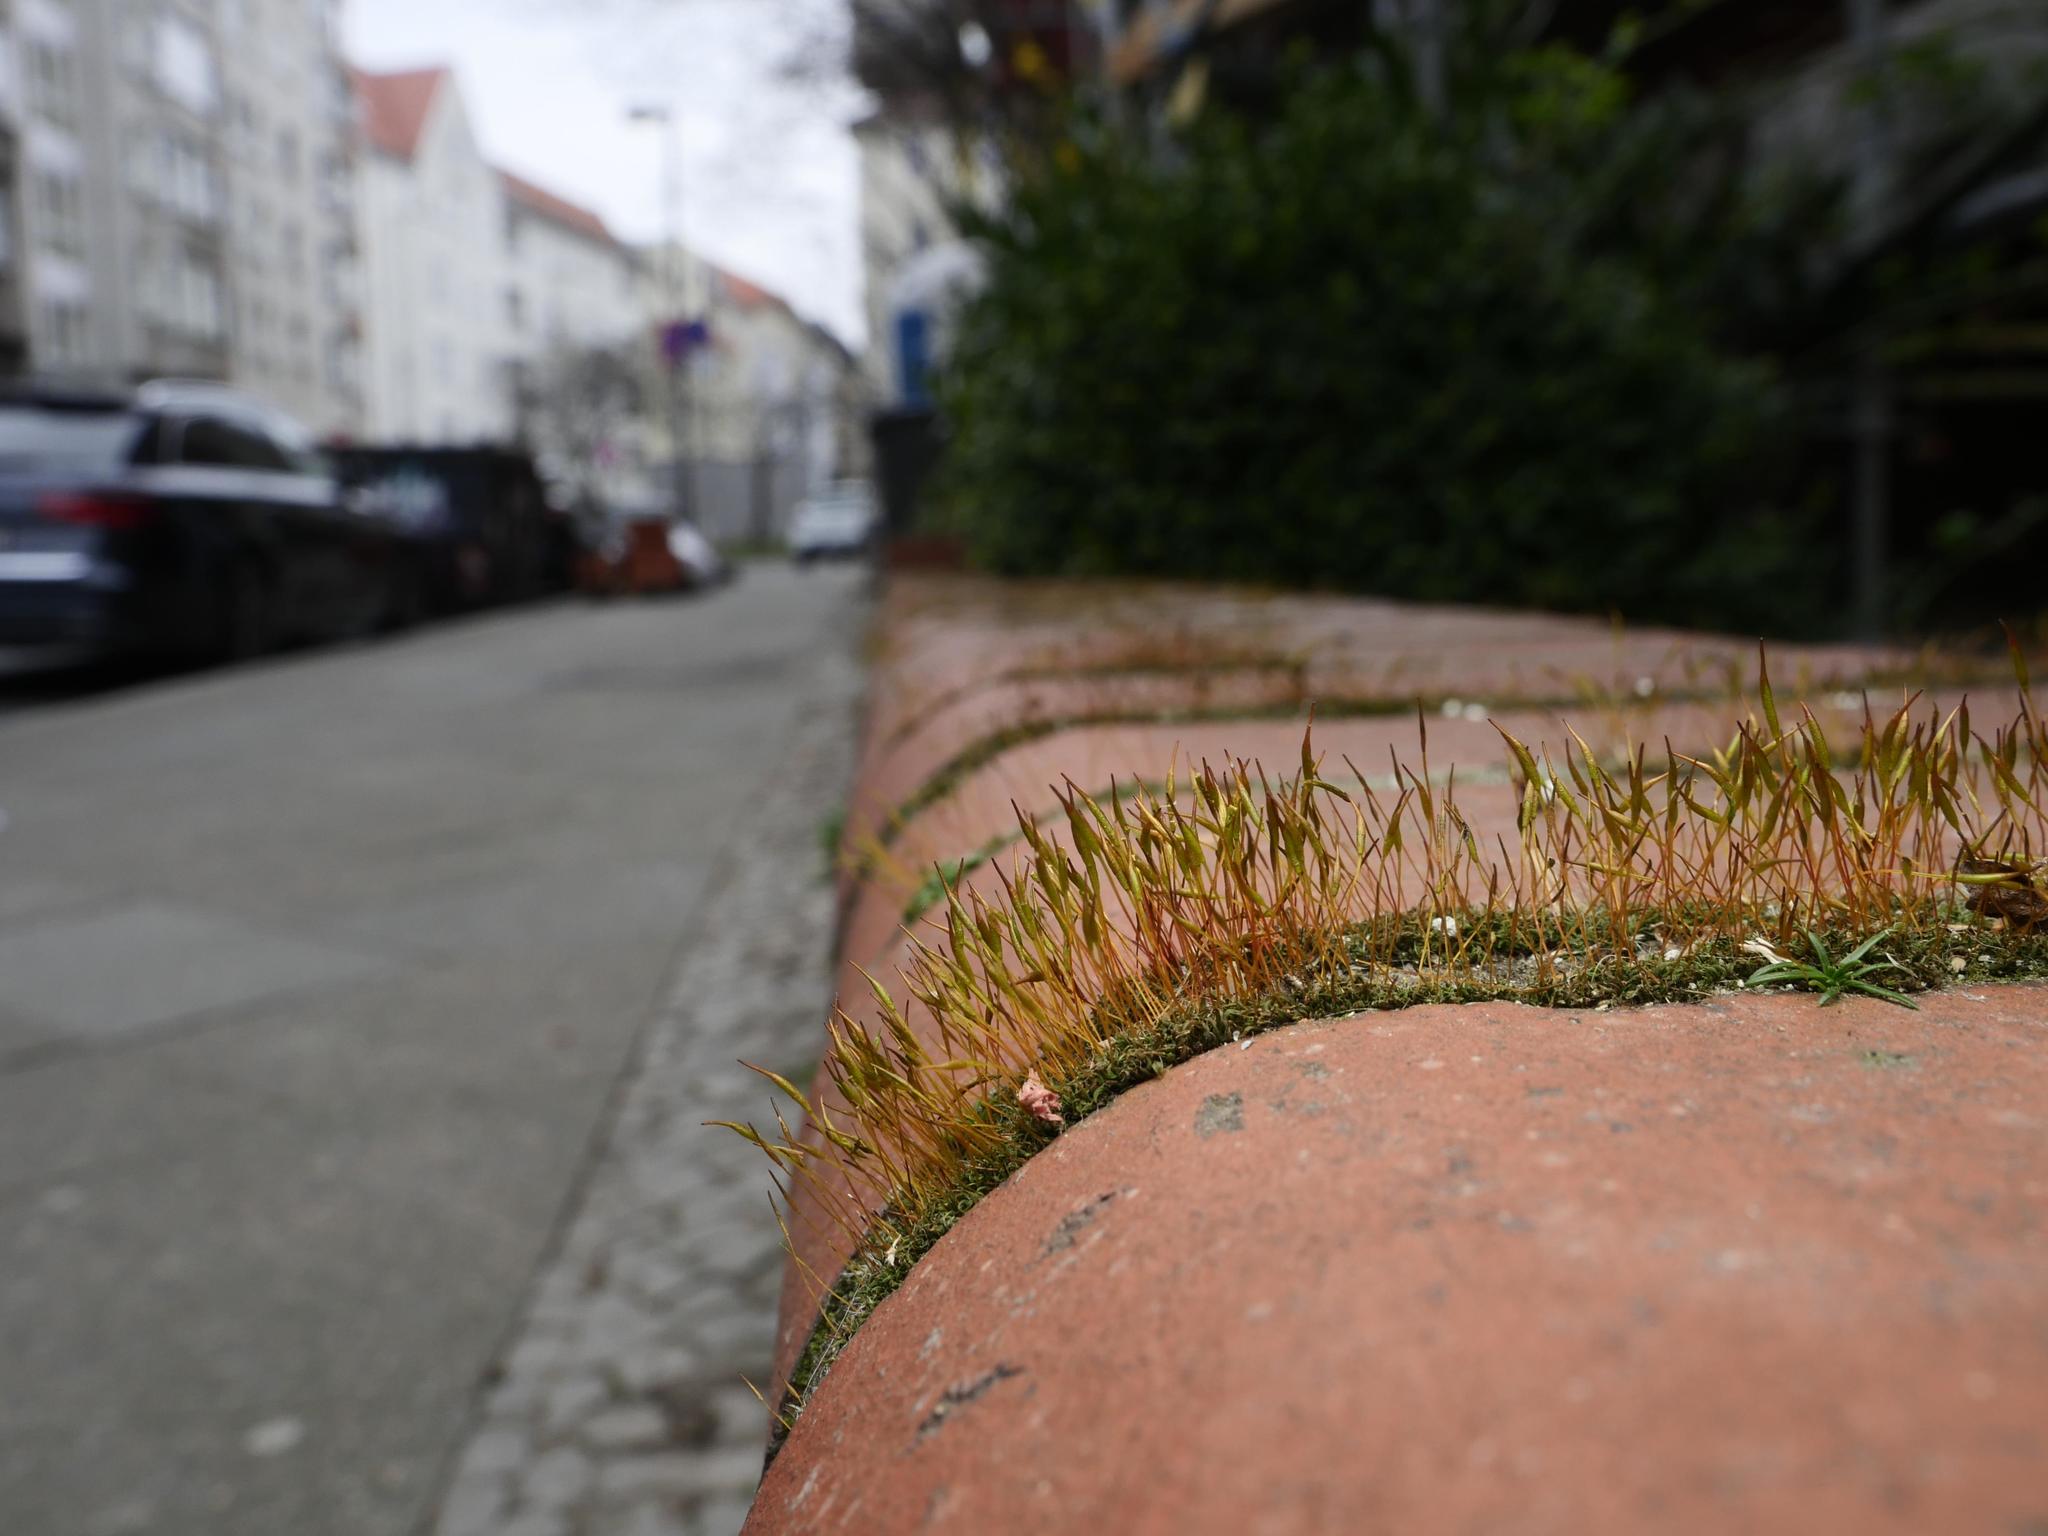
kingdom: Plantae
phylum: Bryophyta
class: Bryopsida
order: Pottiales
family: Pottiaceae
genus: Tortula
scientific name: Tortula muralis
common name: Wall screw-moss
